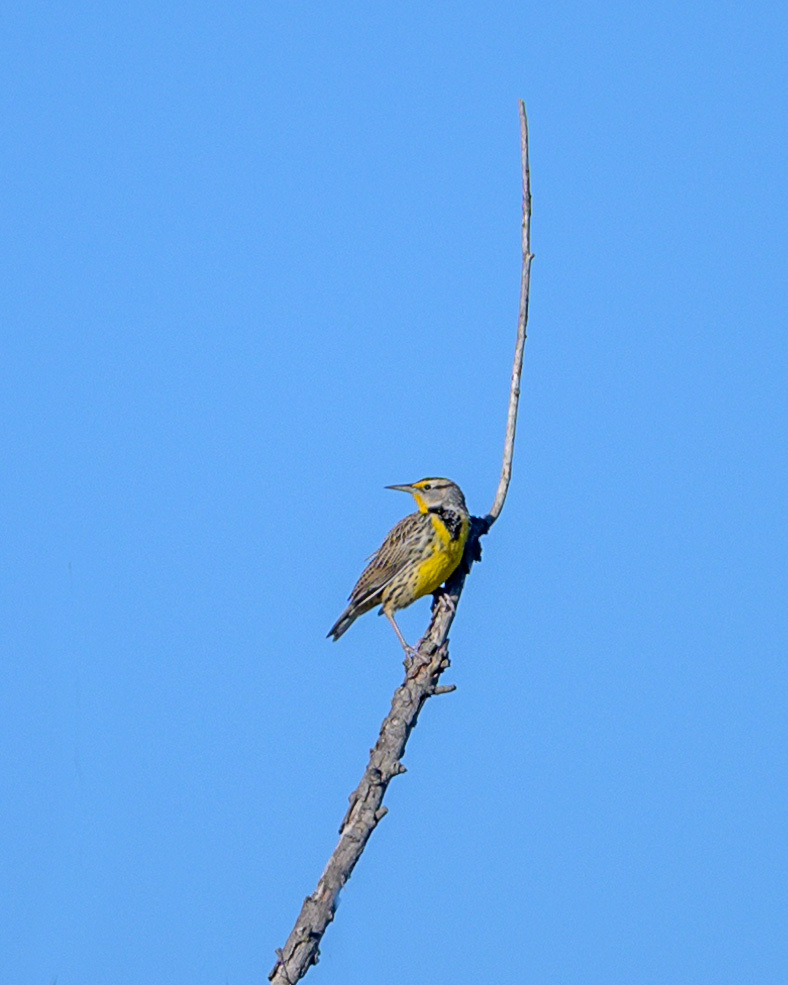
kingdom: Animalia
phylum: Chordata
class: Aves
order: Passeriformes
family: Icteridae
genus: Sturnella
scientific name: Sturnella neglecta
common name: Western meadowlark
